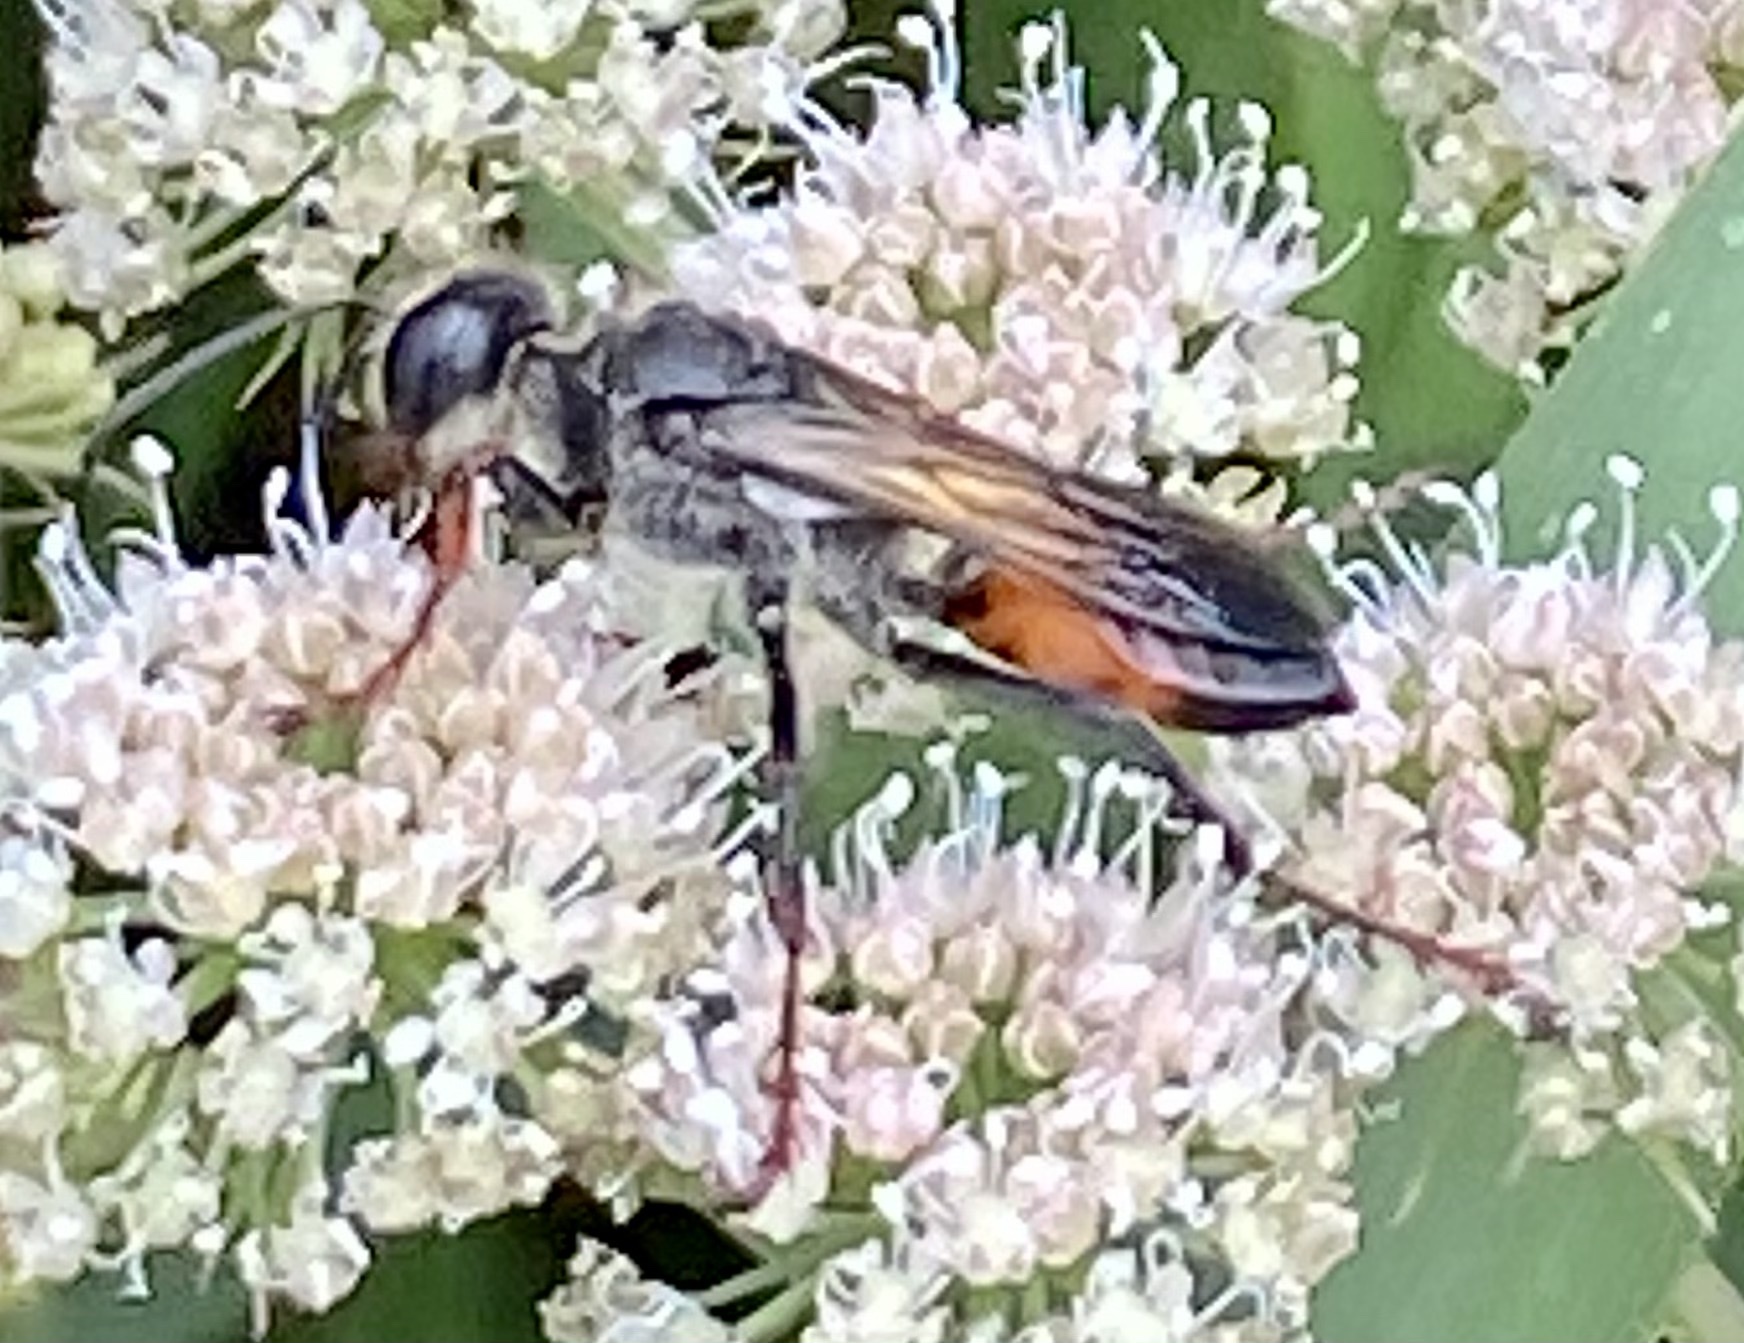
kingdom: Animalia
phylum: Arthropoda
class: Insecta
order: Hymenoptera
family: Sphecidae
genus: Sphex
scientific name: Sphex funerarius
